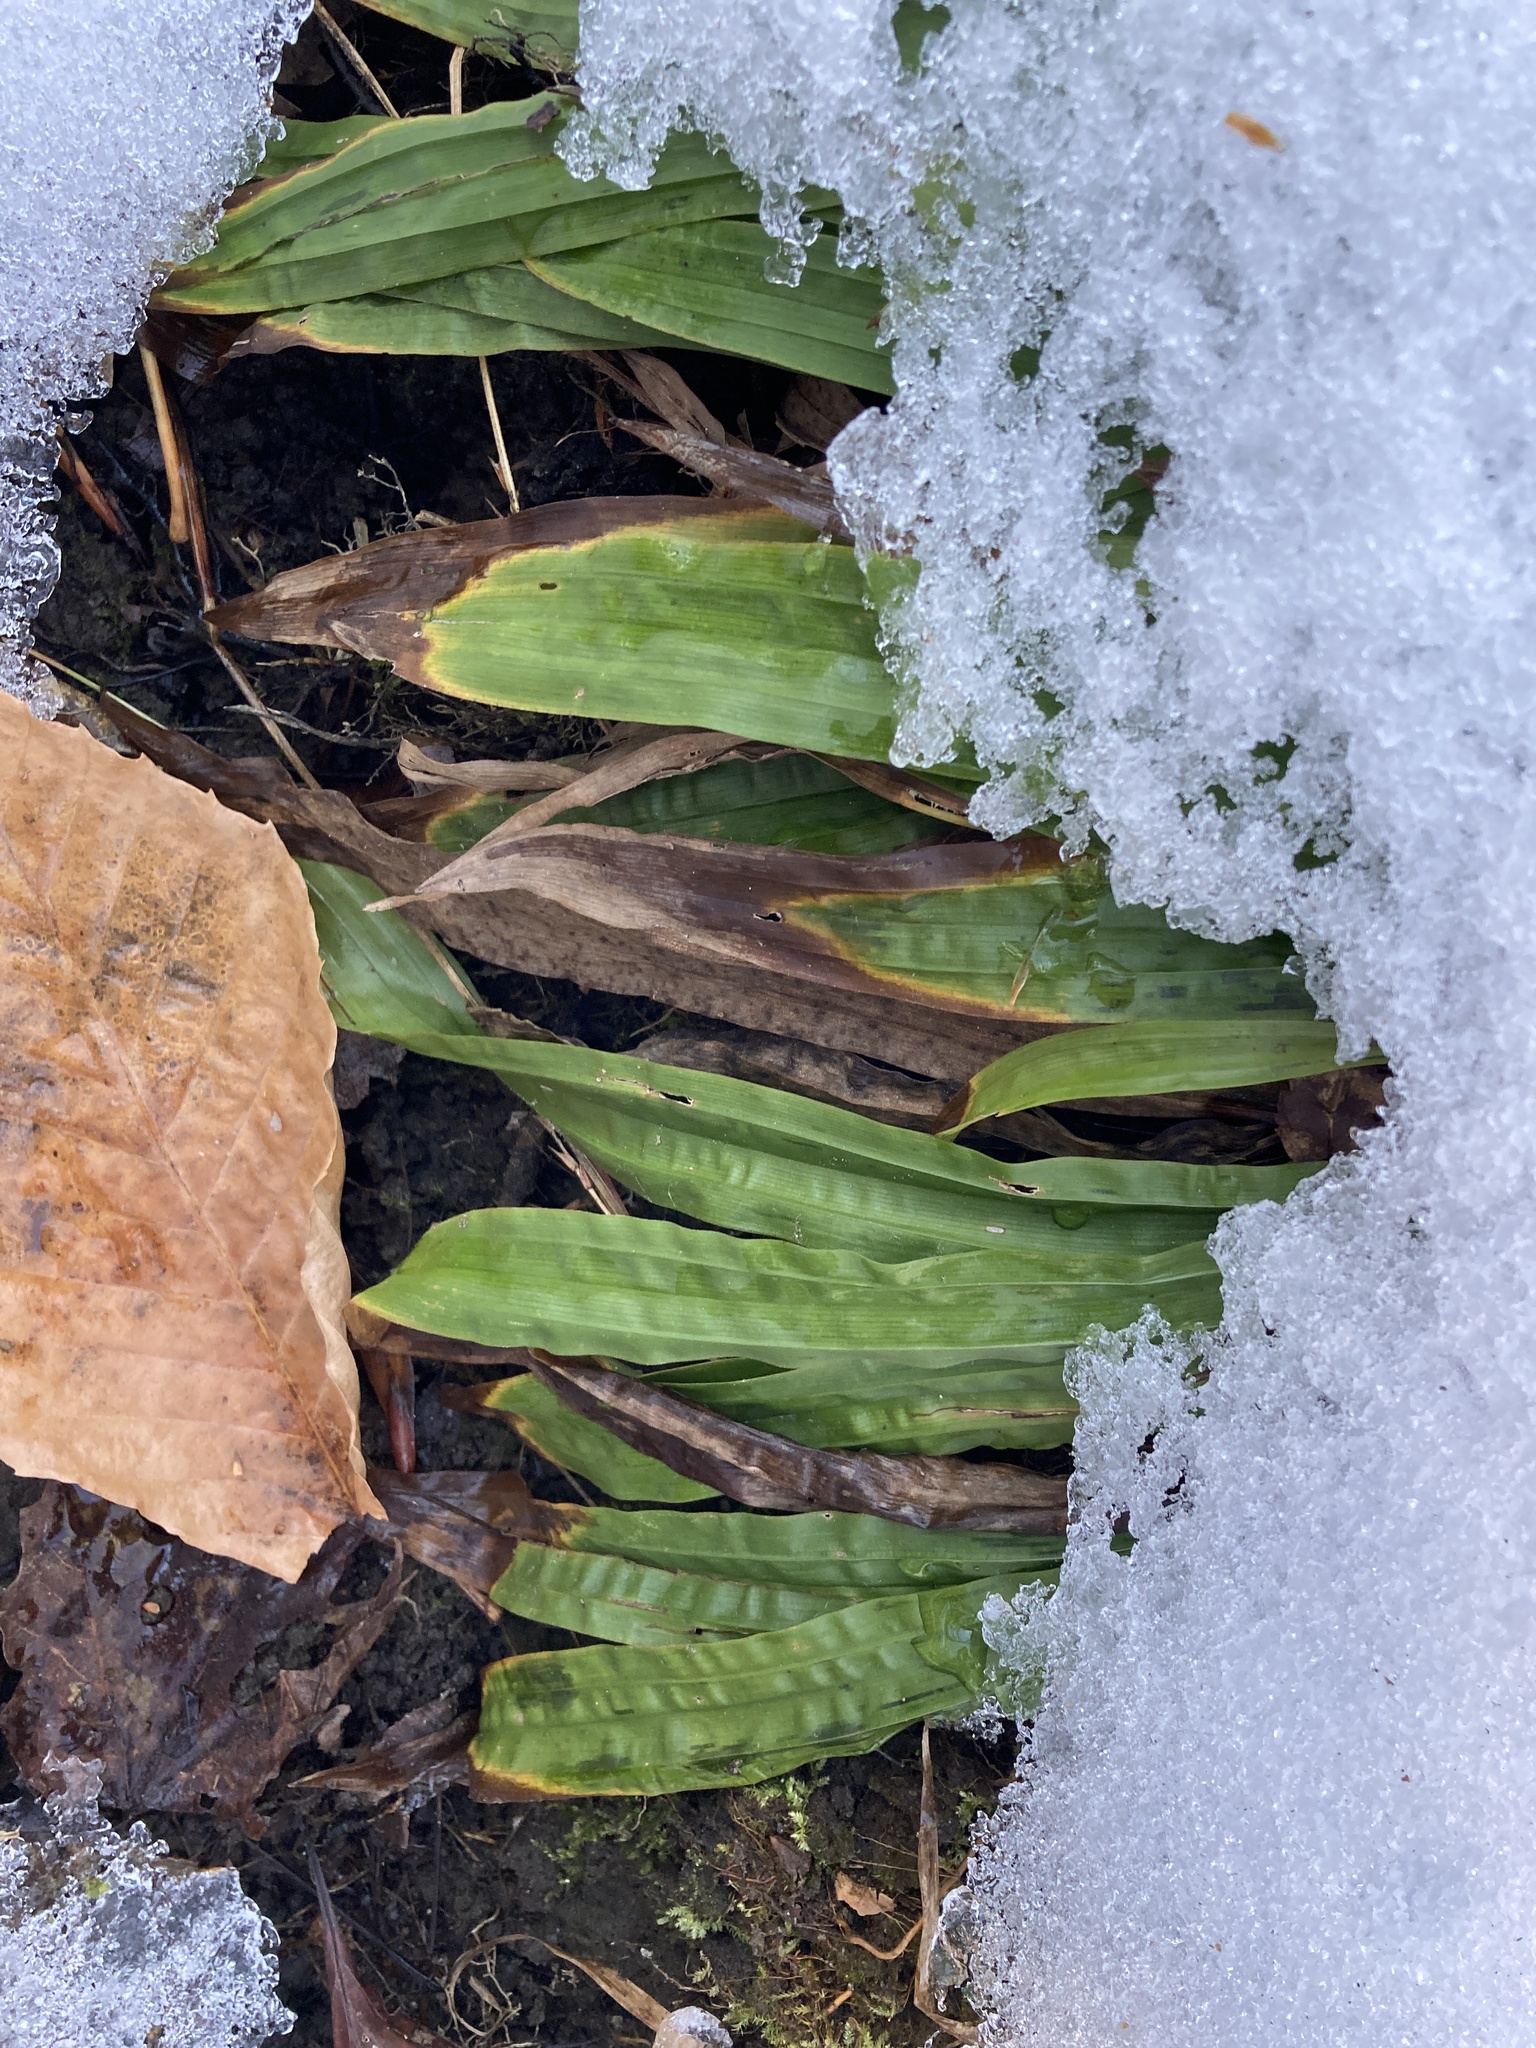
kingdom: Plantae
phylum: Tracheophyta
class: Liliopsida
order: Poales
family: Cyperaceae
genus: Carex
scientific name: Carex plantaginea
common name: Plantain-leaved sedge
